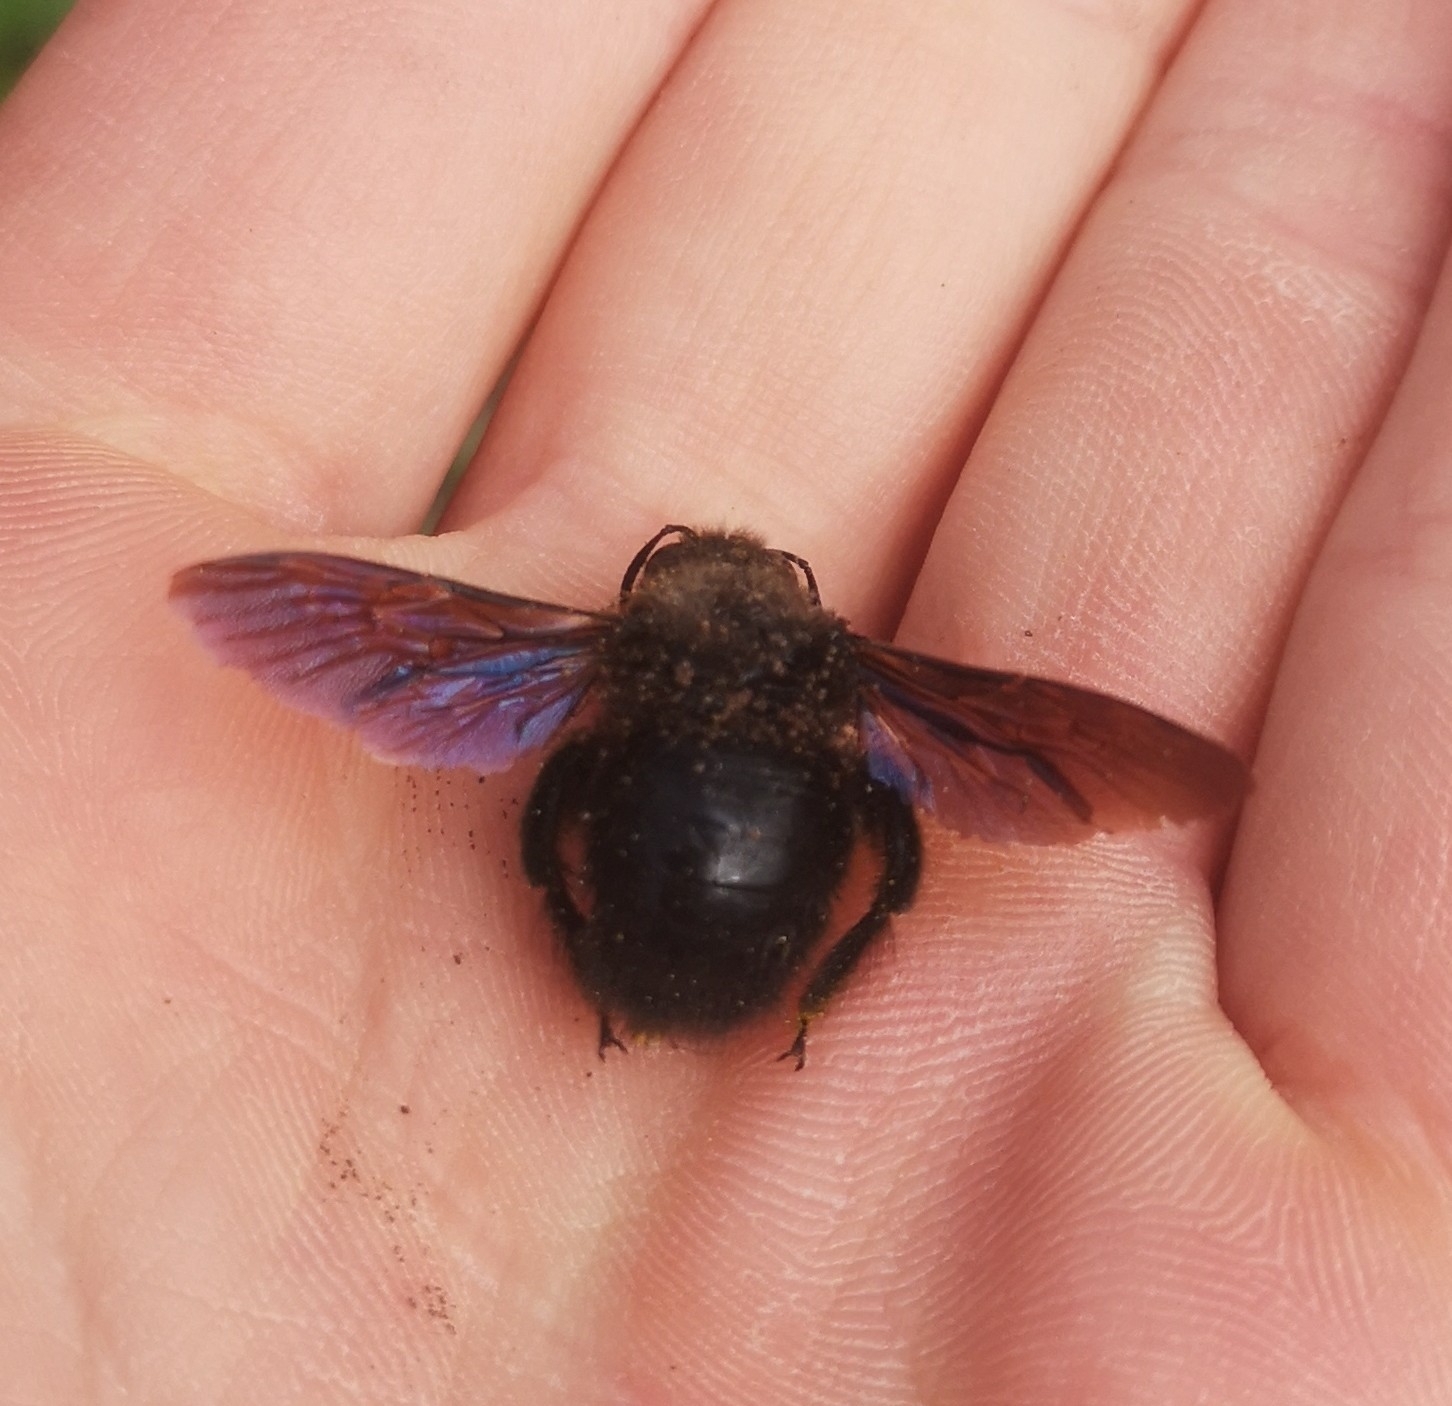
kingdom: Animalia
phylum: Arthropoda
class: Insecta
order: Hymenoptera
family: Apidae
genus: Xylocopa
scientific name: Xylocopa violacea
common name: Violet carpenter bee
